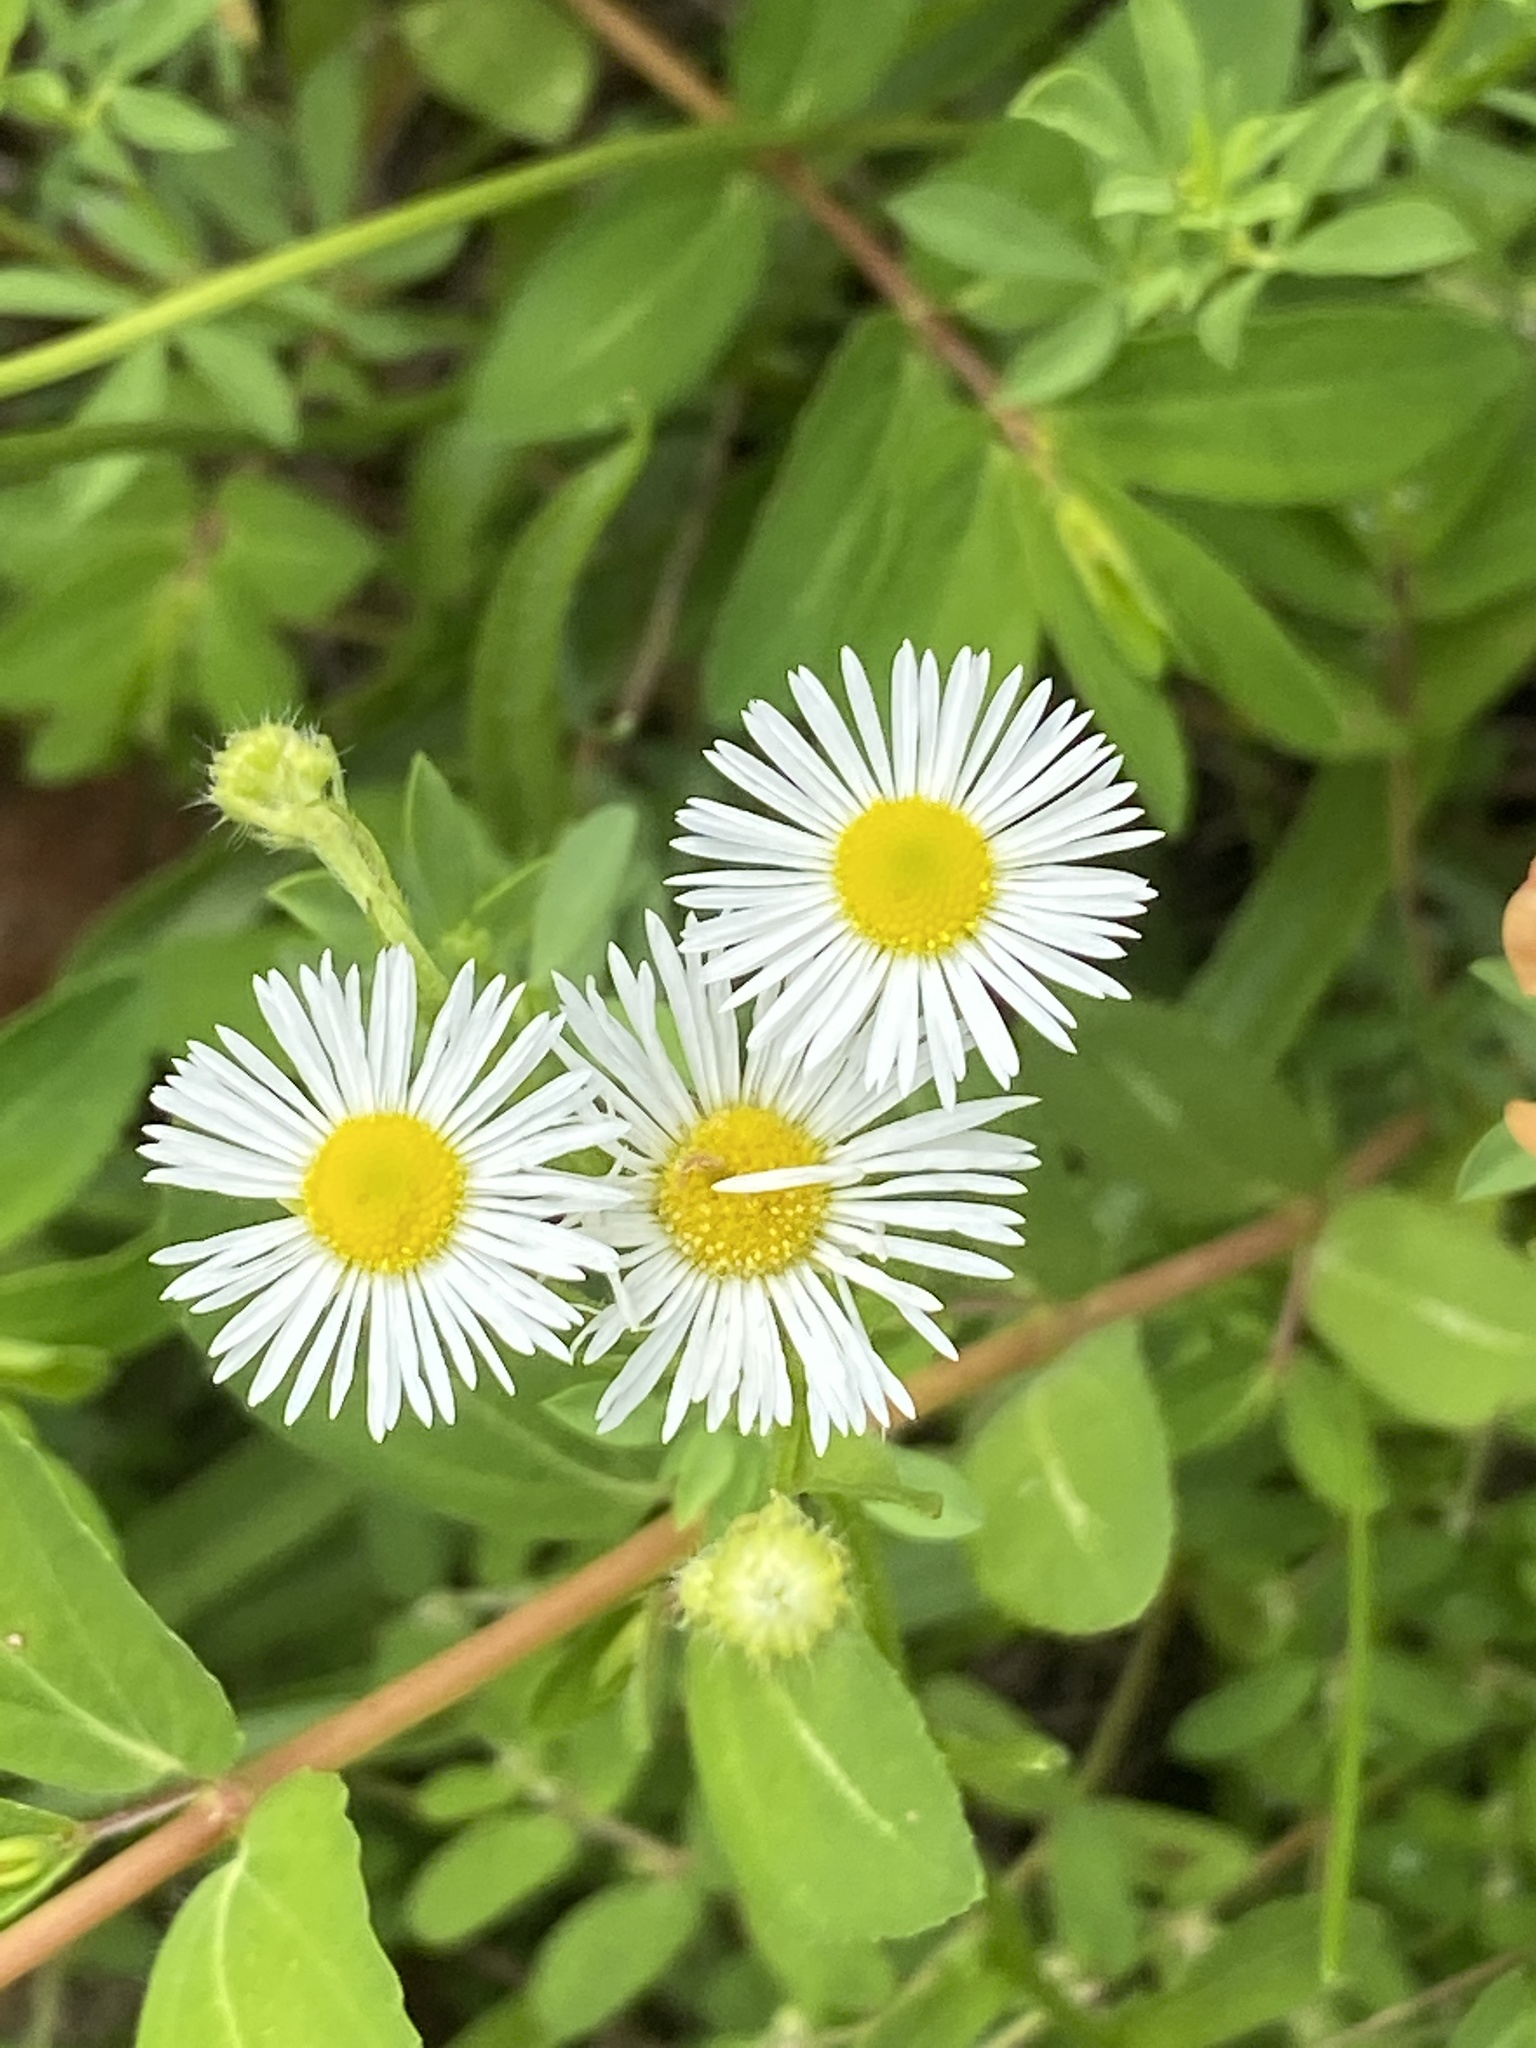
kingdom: Plantae
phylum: Tracheophyta
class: Magnoliopsida
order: Asterales
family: Asteraceae
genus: Erigeron
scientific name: Erigeron strigosus
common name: Common eastern fleabane
